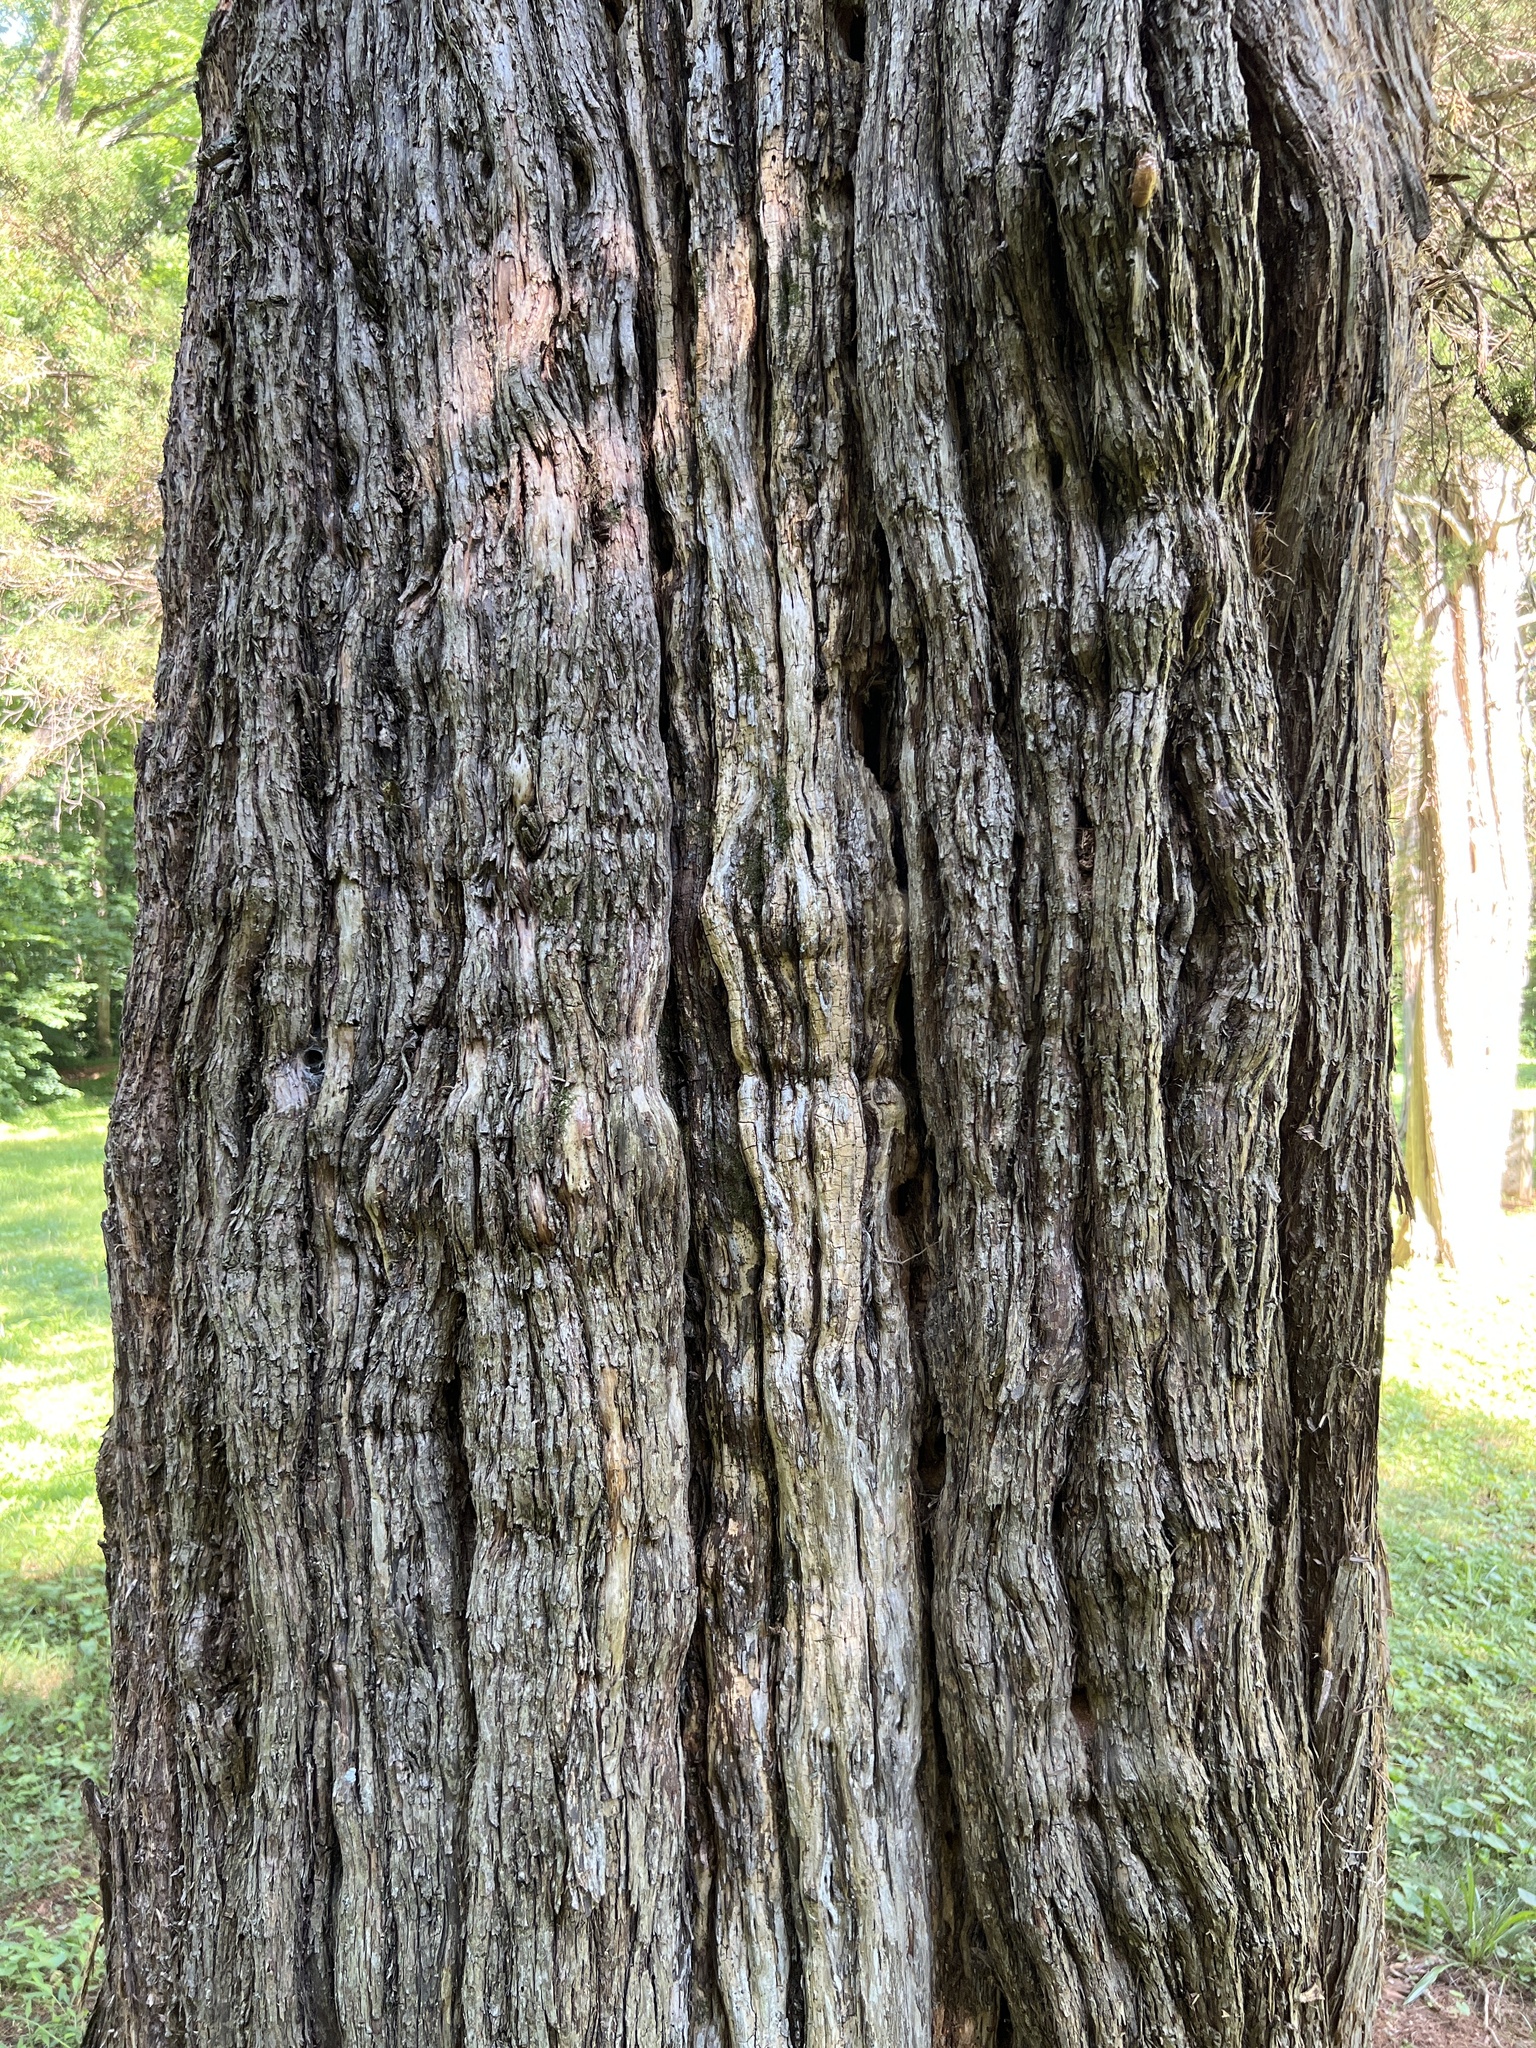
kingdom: Plantae
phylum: Tracheophyta
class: Pinopsida
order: Pinales
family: Cupressaceae
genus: Juniperus
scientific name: Juniperus virginiana
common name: Red juniper
